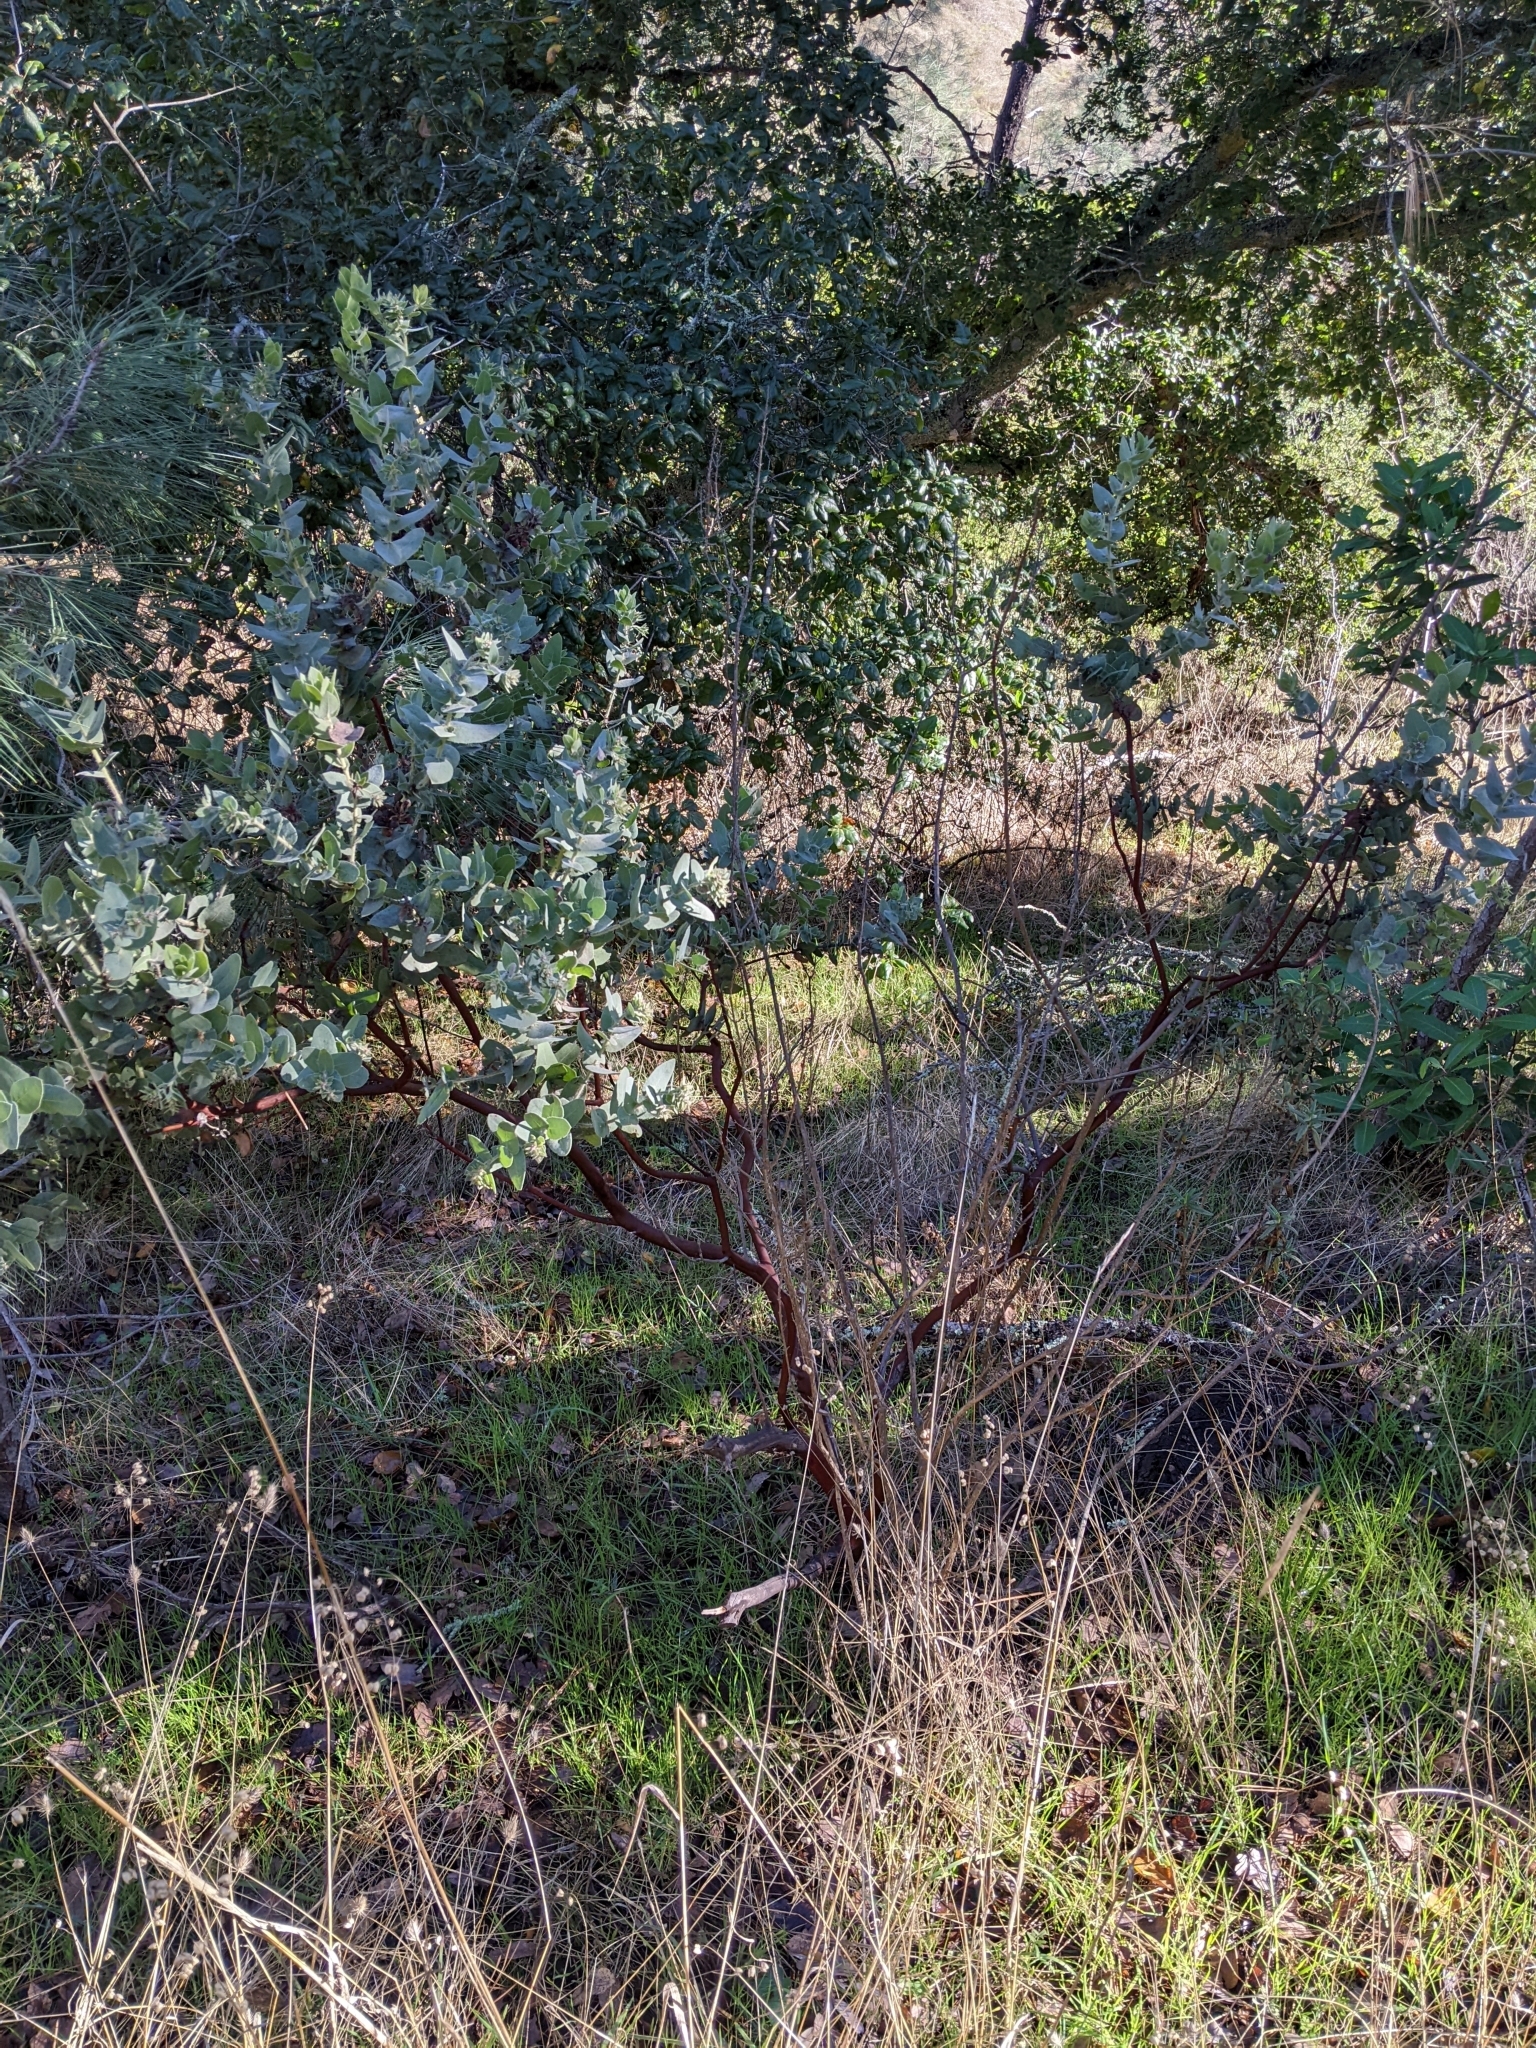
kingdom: Plantae
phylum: Tracheophyta
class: Magnoliopsida
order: Ericales
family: Ericaceae
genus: Arctostaphylos
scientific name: Arctostaphylos auriculata
